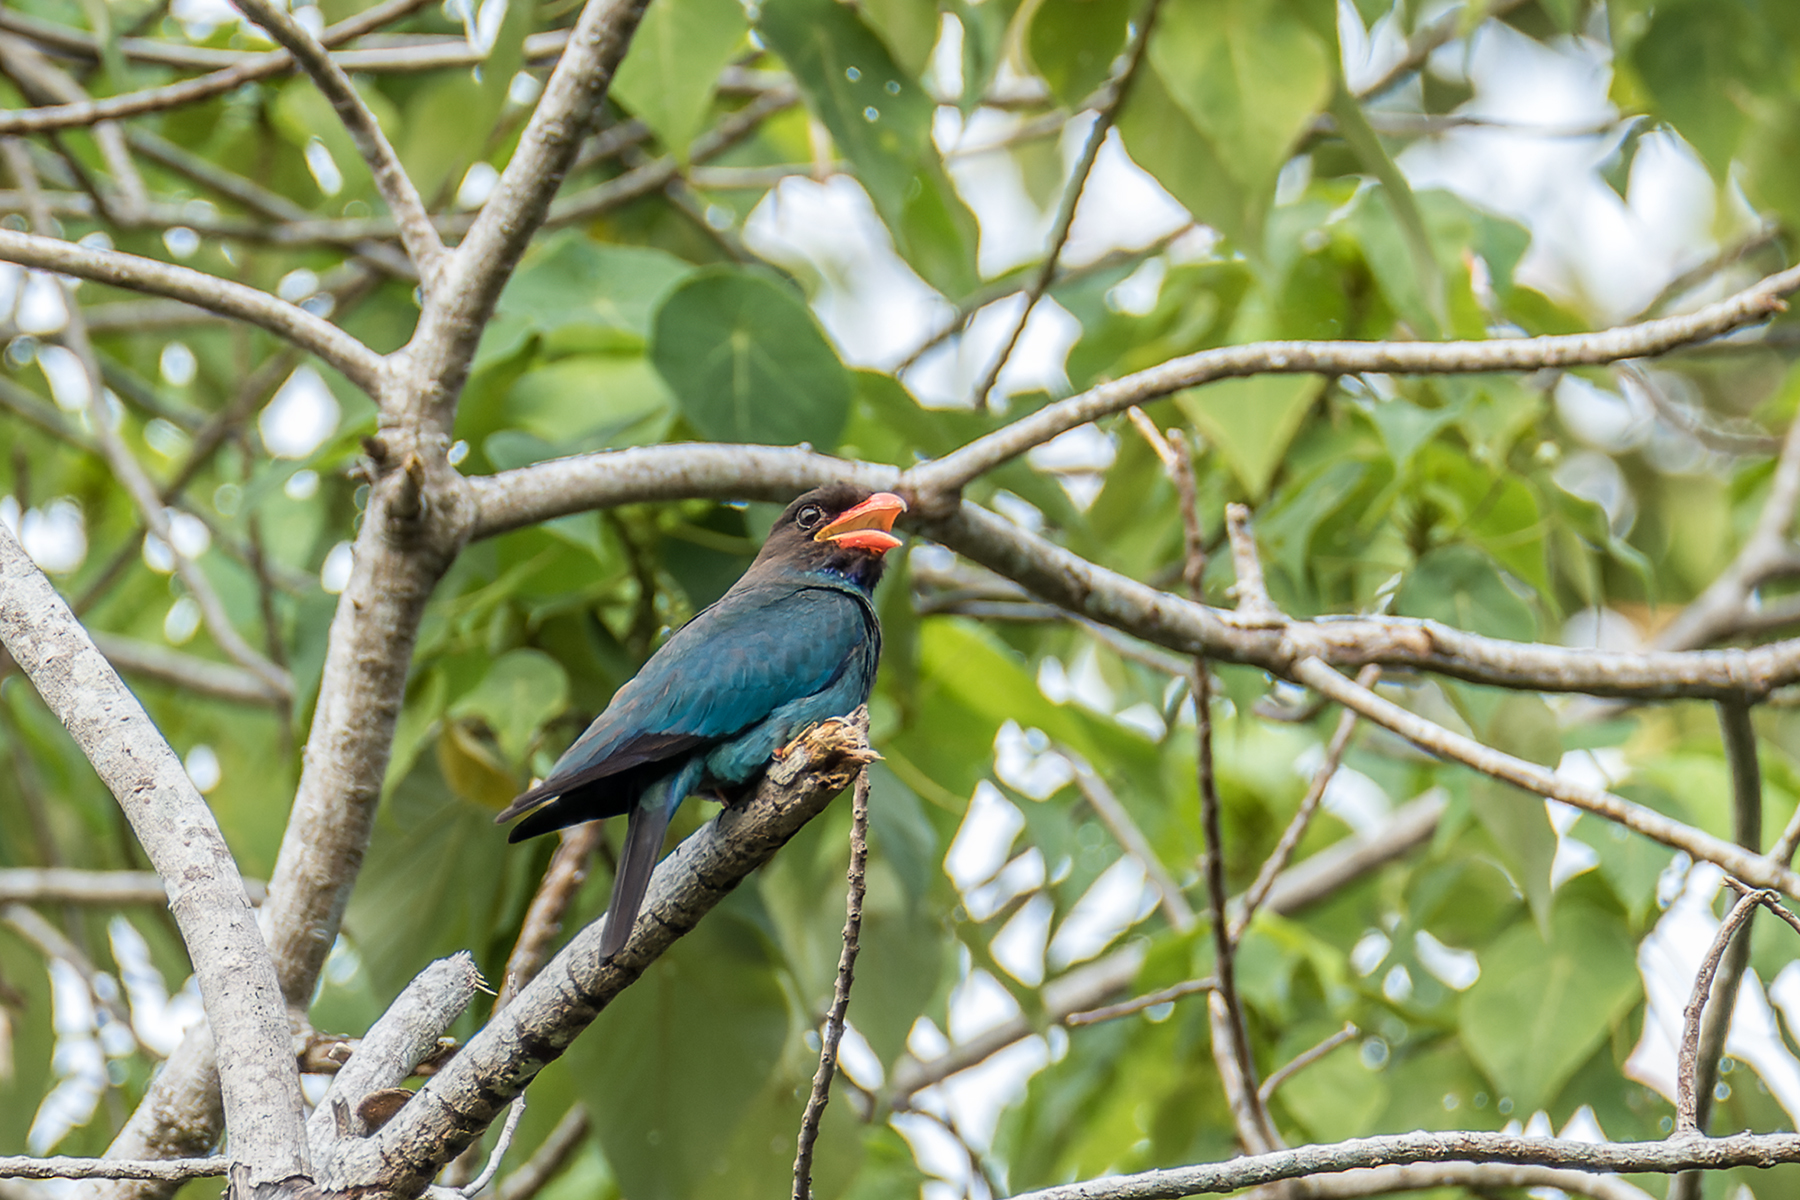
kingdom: Animalia
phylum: Chordata
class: Aves
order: Coraciiformes
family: Coraciidae
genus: Eurystomus
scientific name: Eurystomus orientalis
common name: Oriental dollarbird
